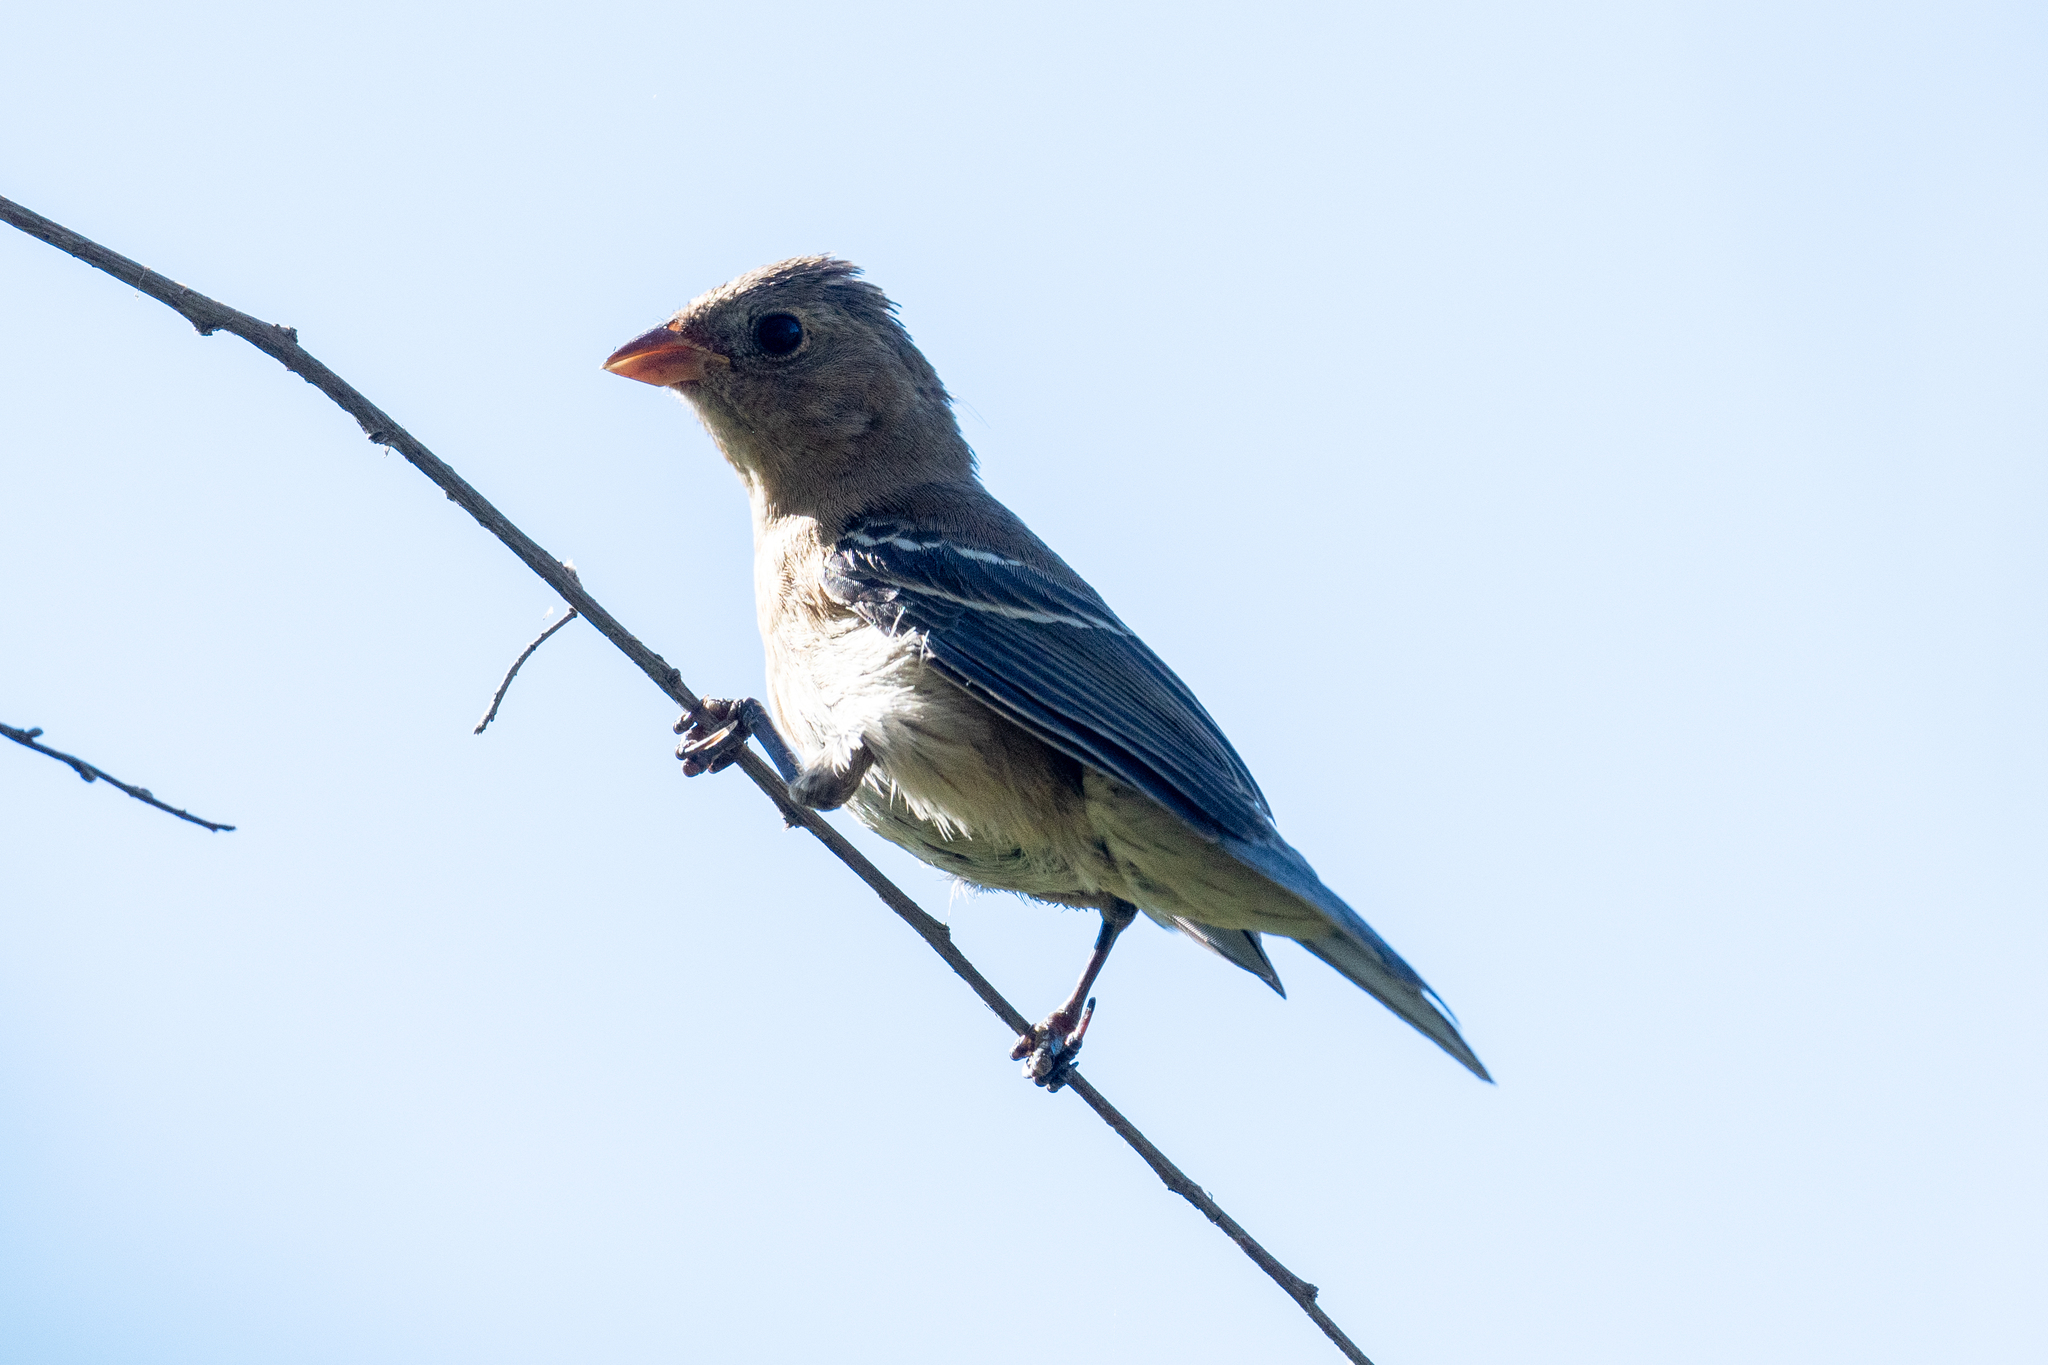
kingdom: Animalia
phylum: Chordata
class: Aves
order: Passeriformes
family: Cardinalidae
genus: Passerina
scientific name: Passerina amoena
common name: Lazuli bunting
